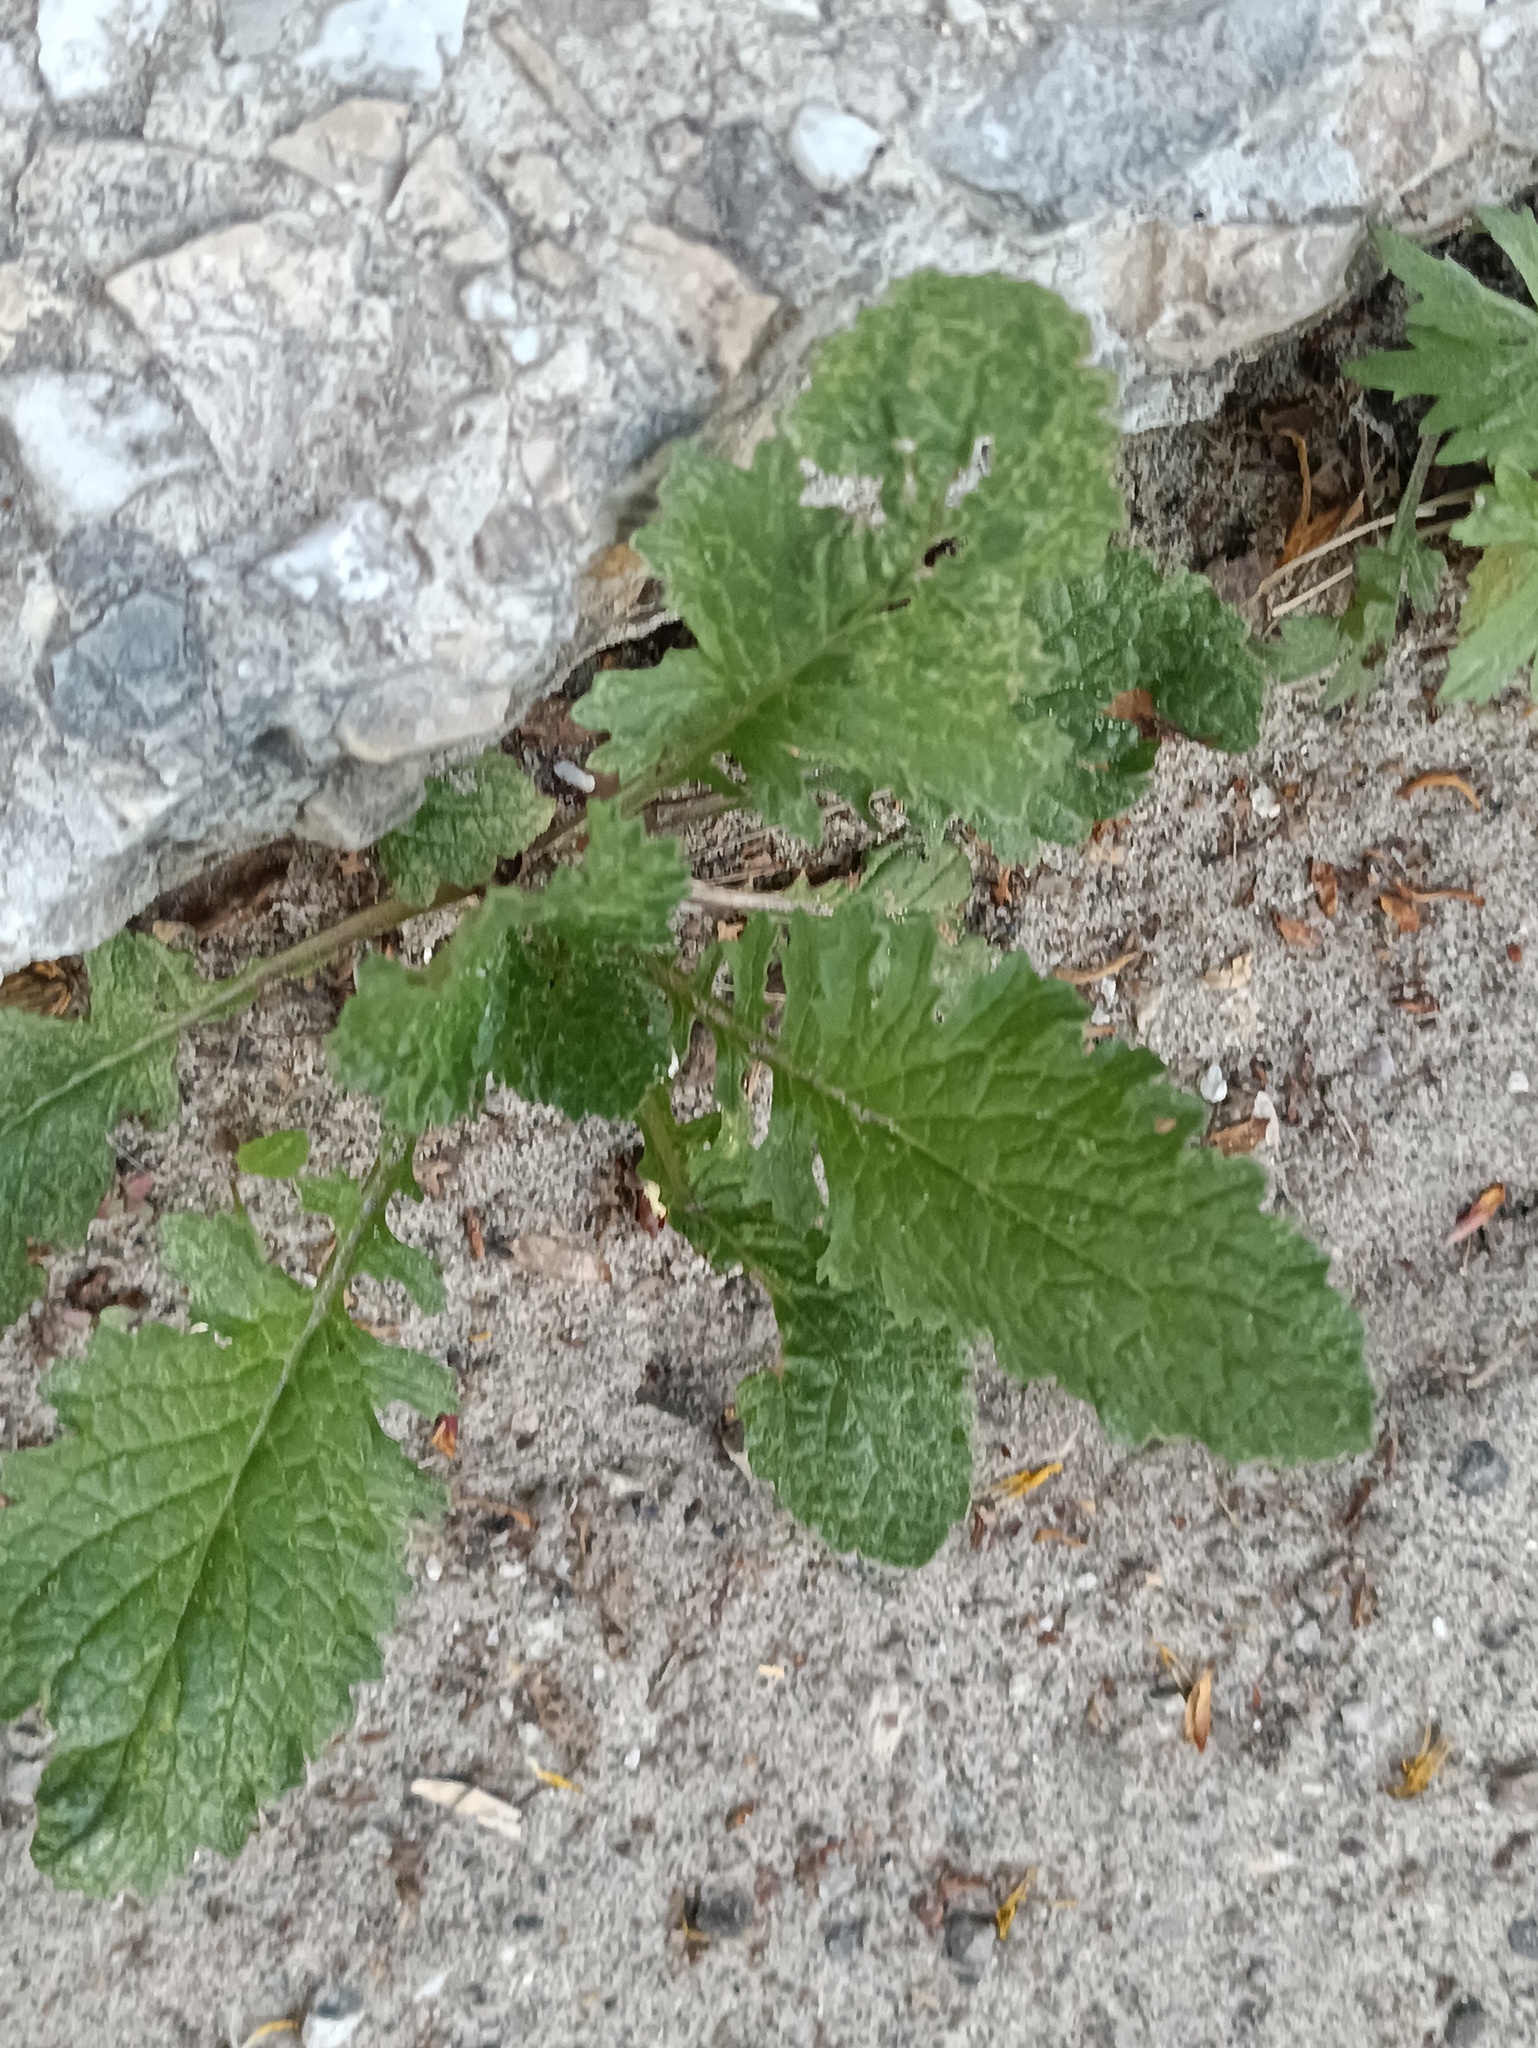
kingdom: Plantae
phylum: Tracheophyta
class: Magnoliopsida
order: Asterales
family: Asteraceae
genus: Jacobaea
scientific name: Jacobaea vulgaris
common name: Stinking willie
